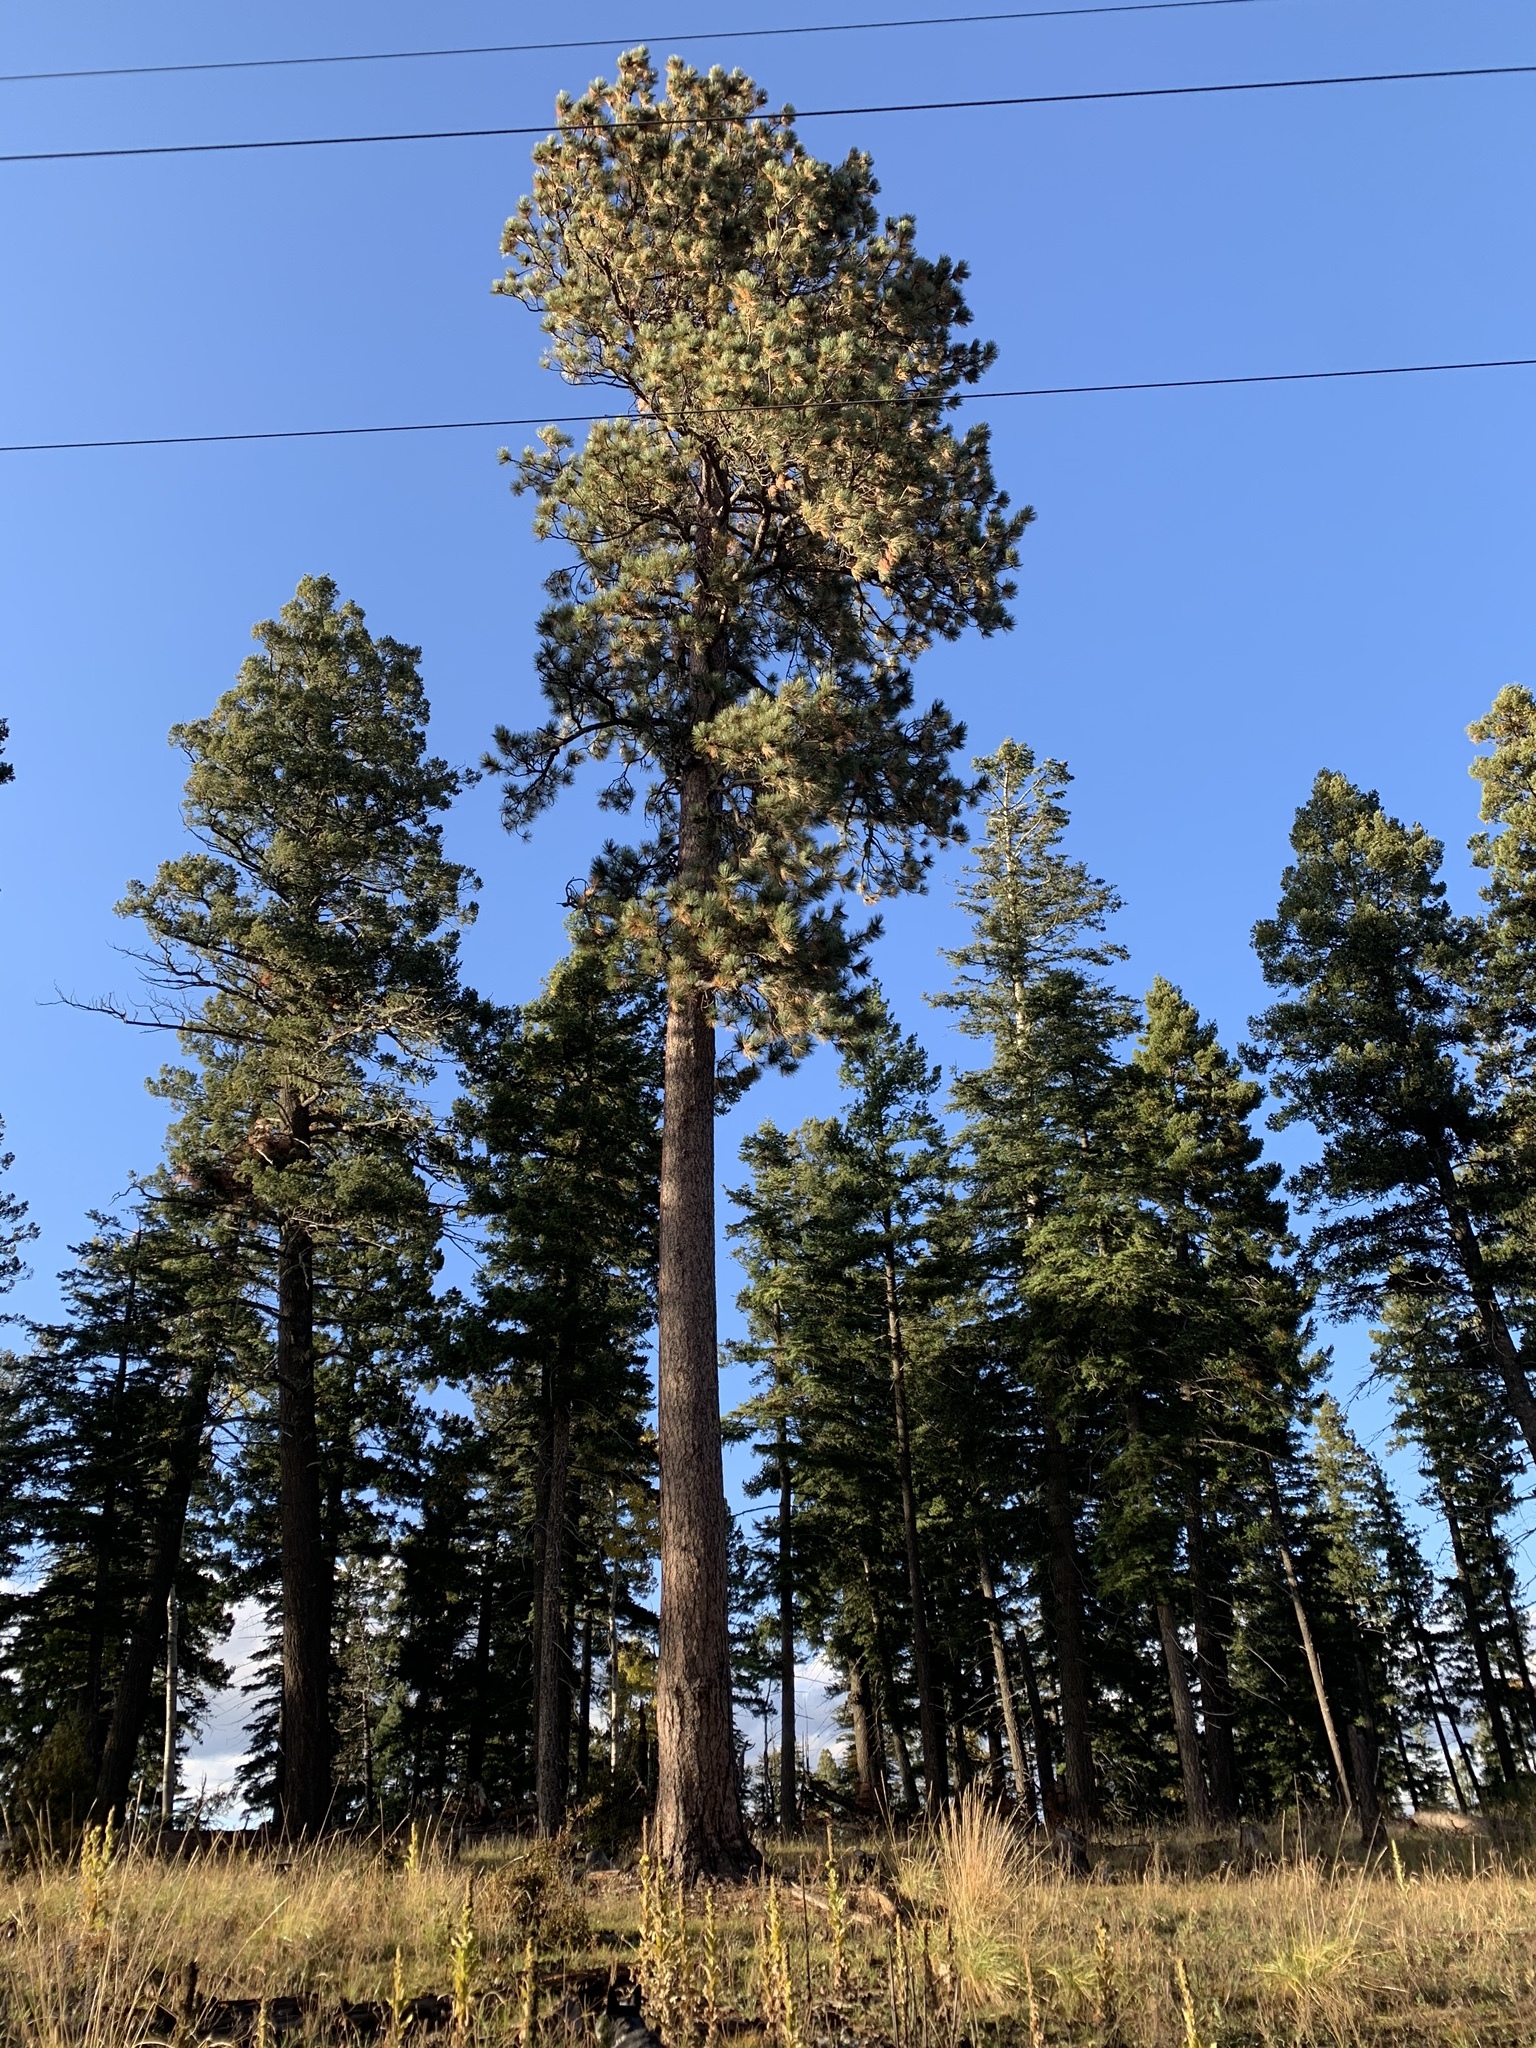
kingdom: Plantae
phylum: Tracheophyta
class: Pinopsida
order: Pinales
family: Pinaceae
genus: Pinus
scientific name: Pinus ponderosa
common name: Western yellow-pine
